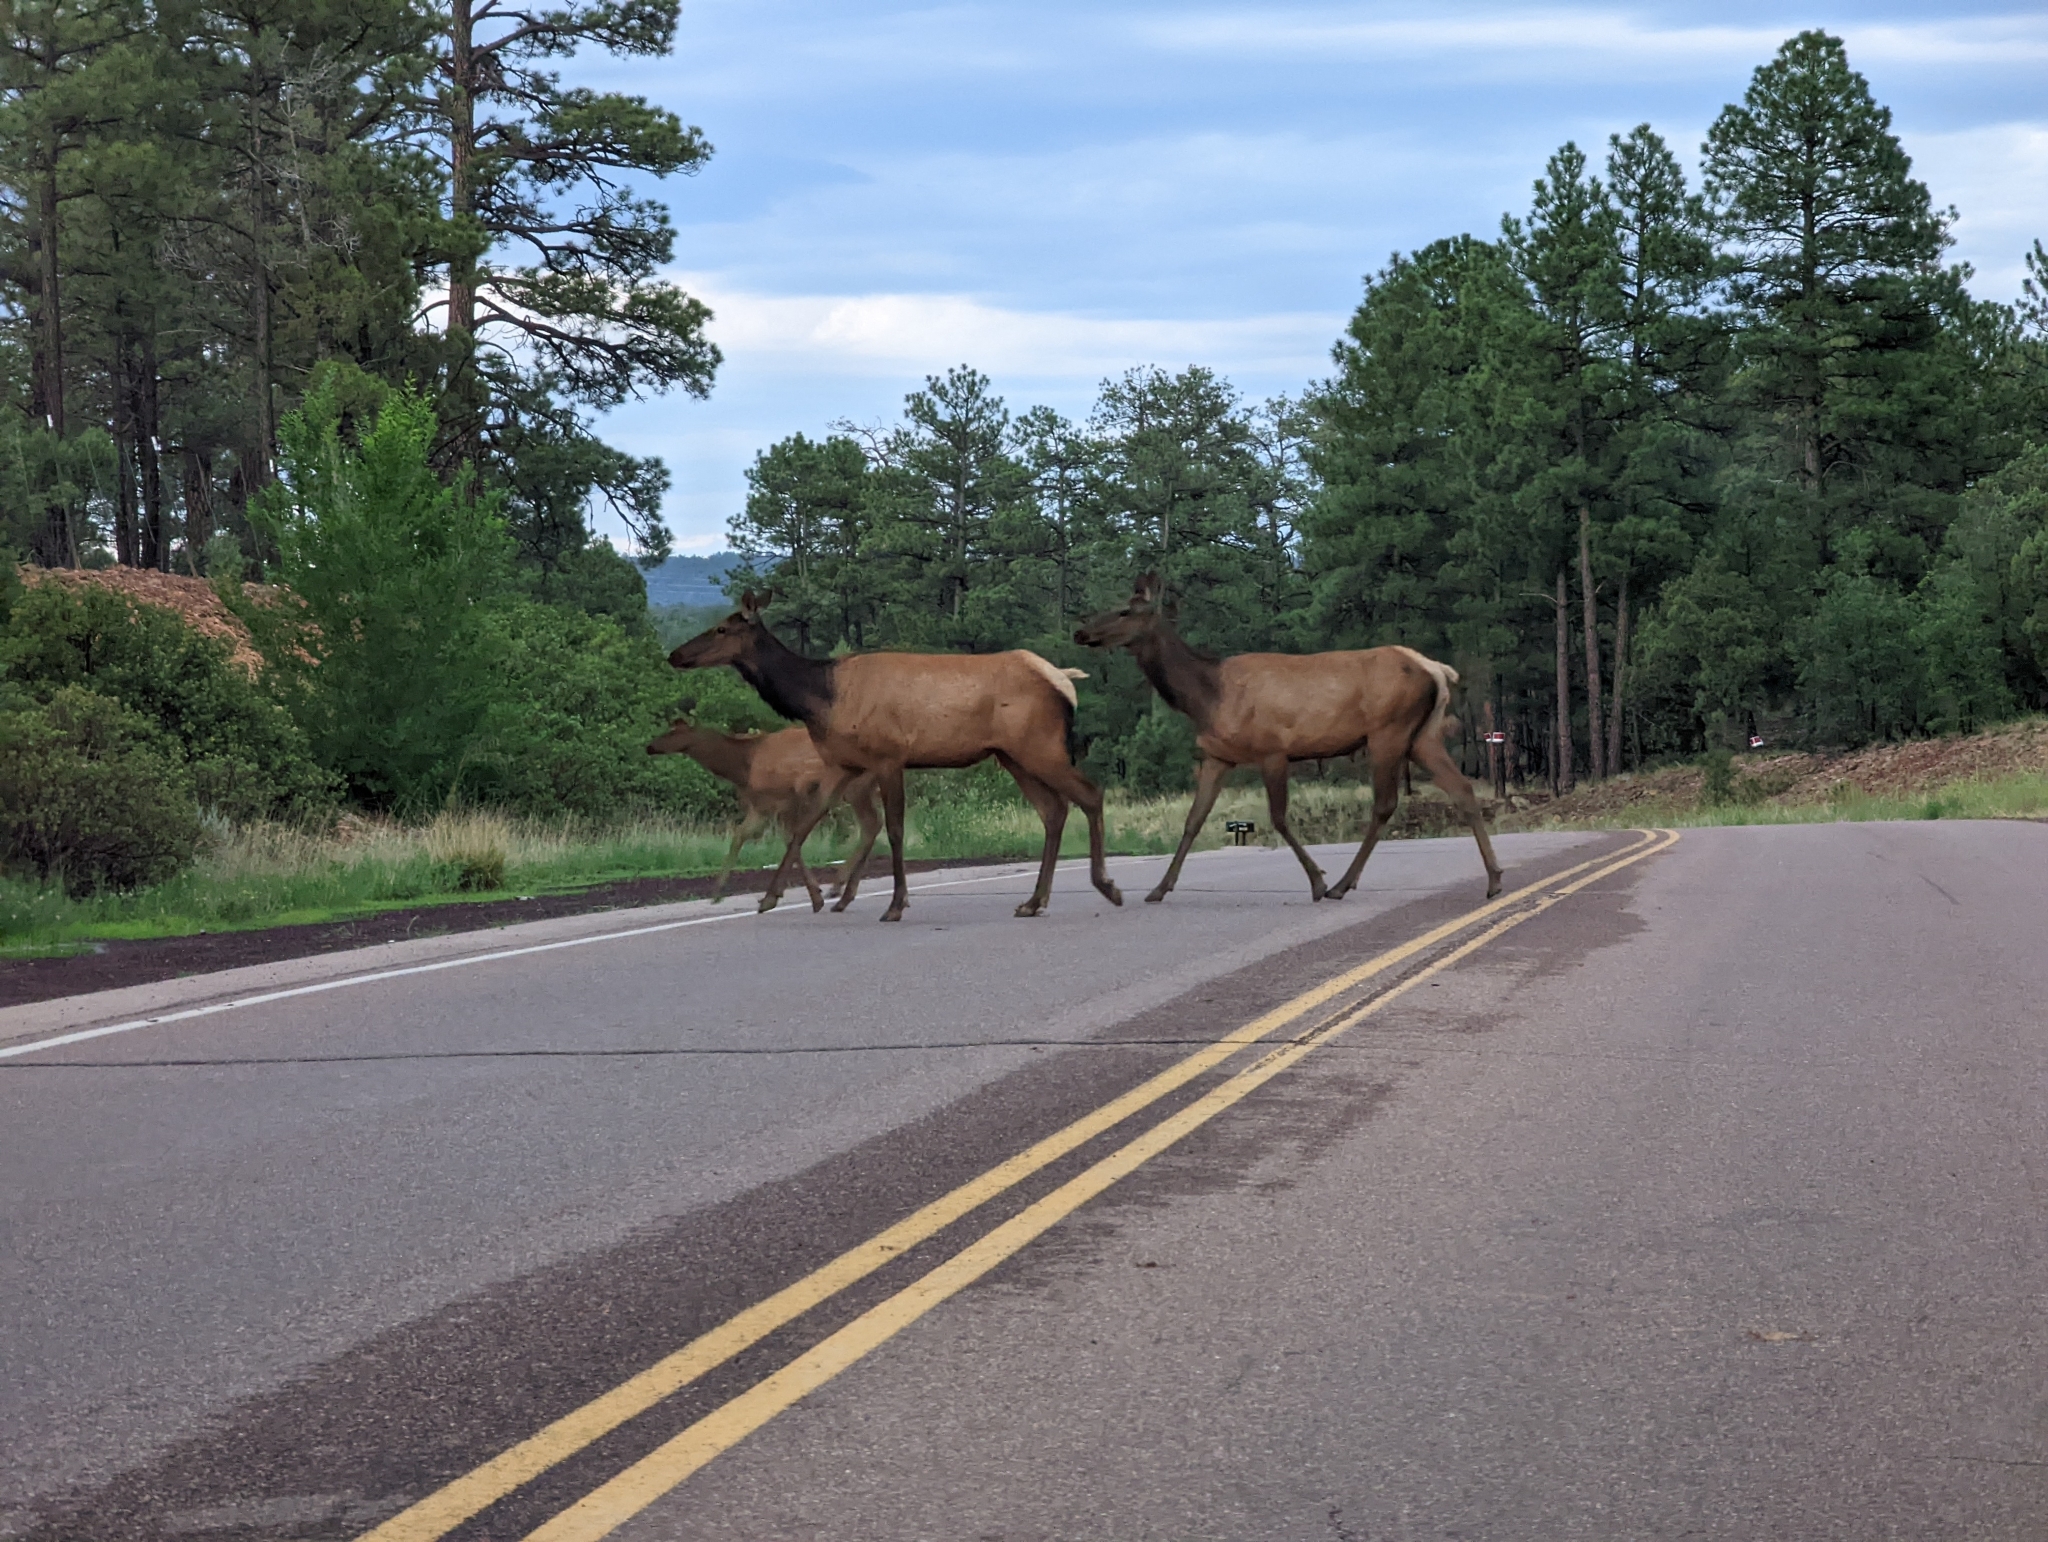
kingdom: Animalia
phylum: Chordata
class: Mammalia
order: Artiodactyla
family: Cervidae
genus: Cervus
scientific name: Cervus elaphus
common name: Red deer
